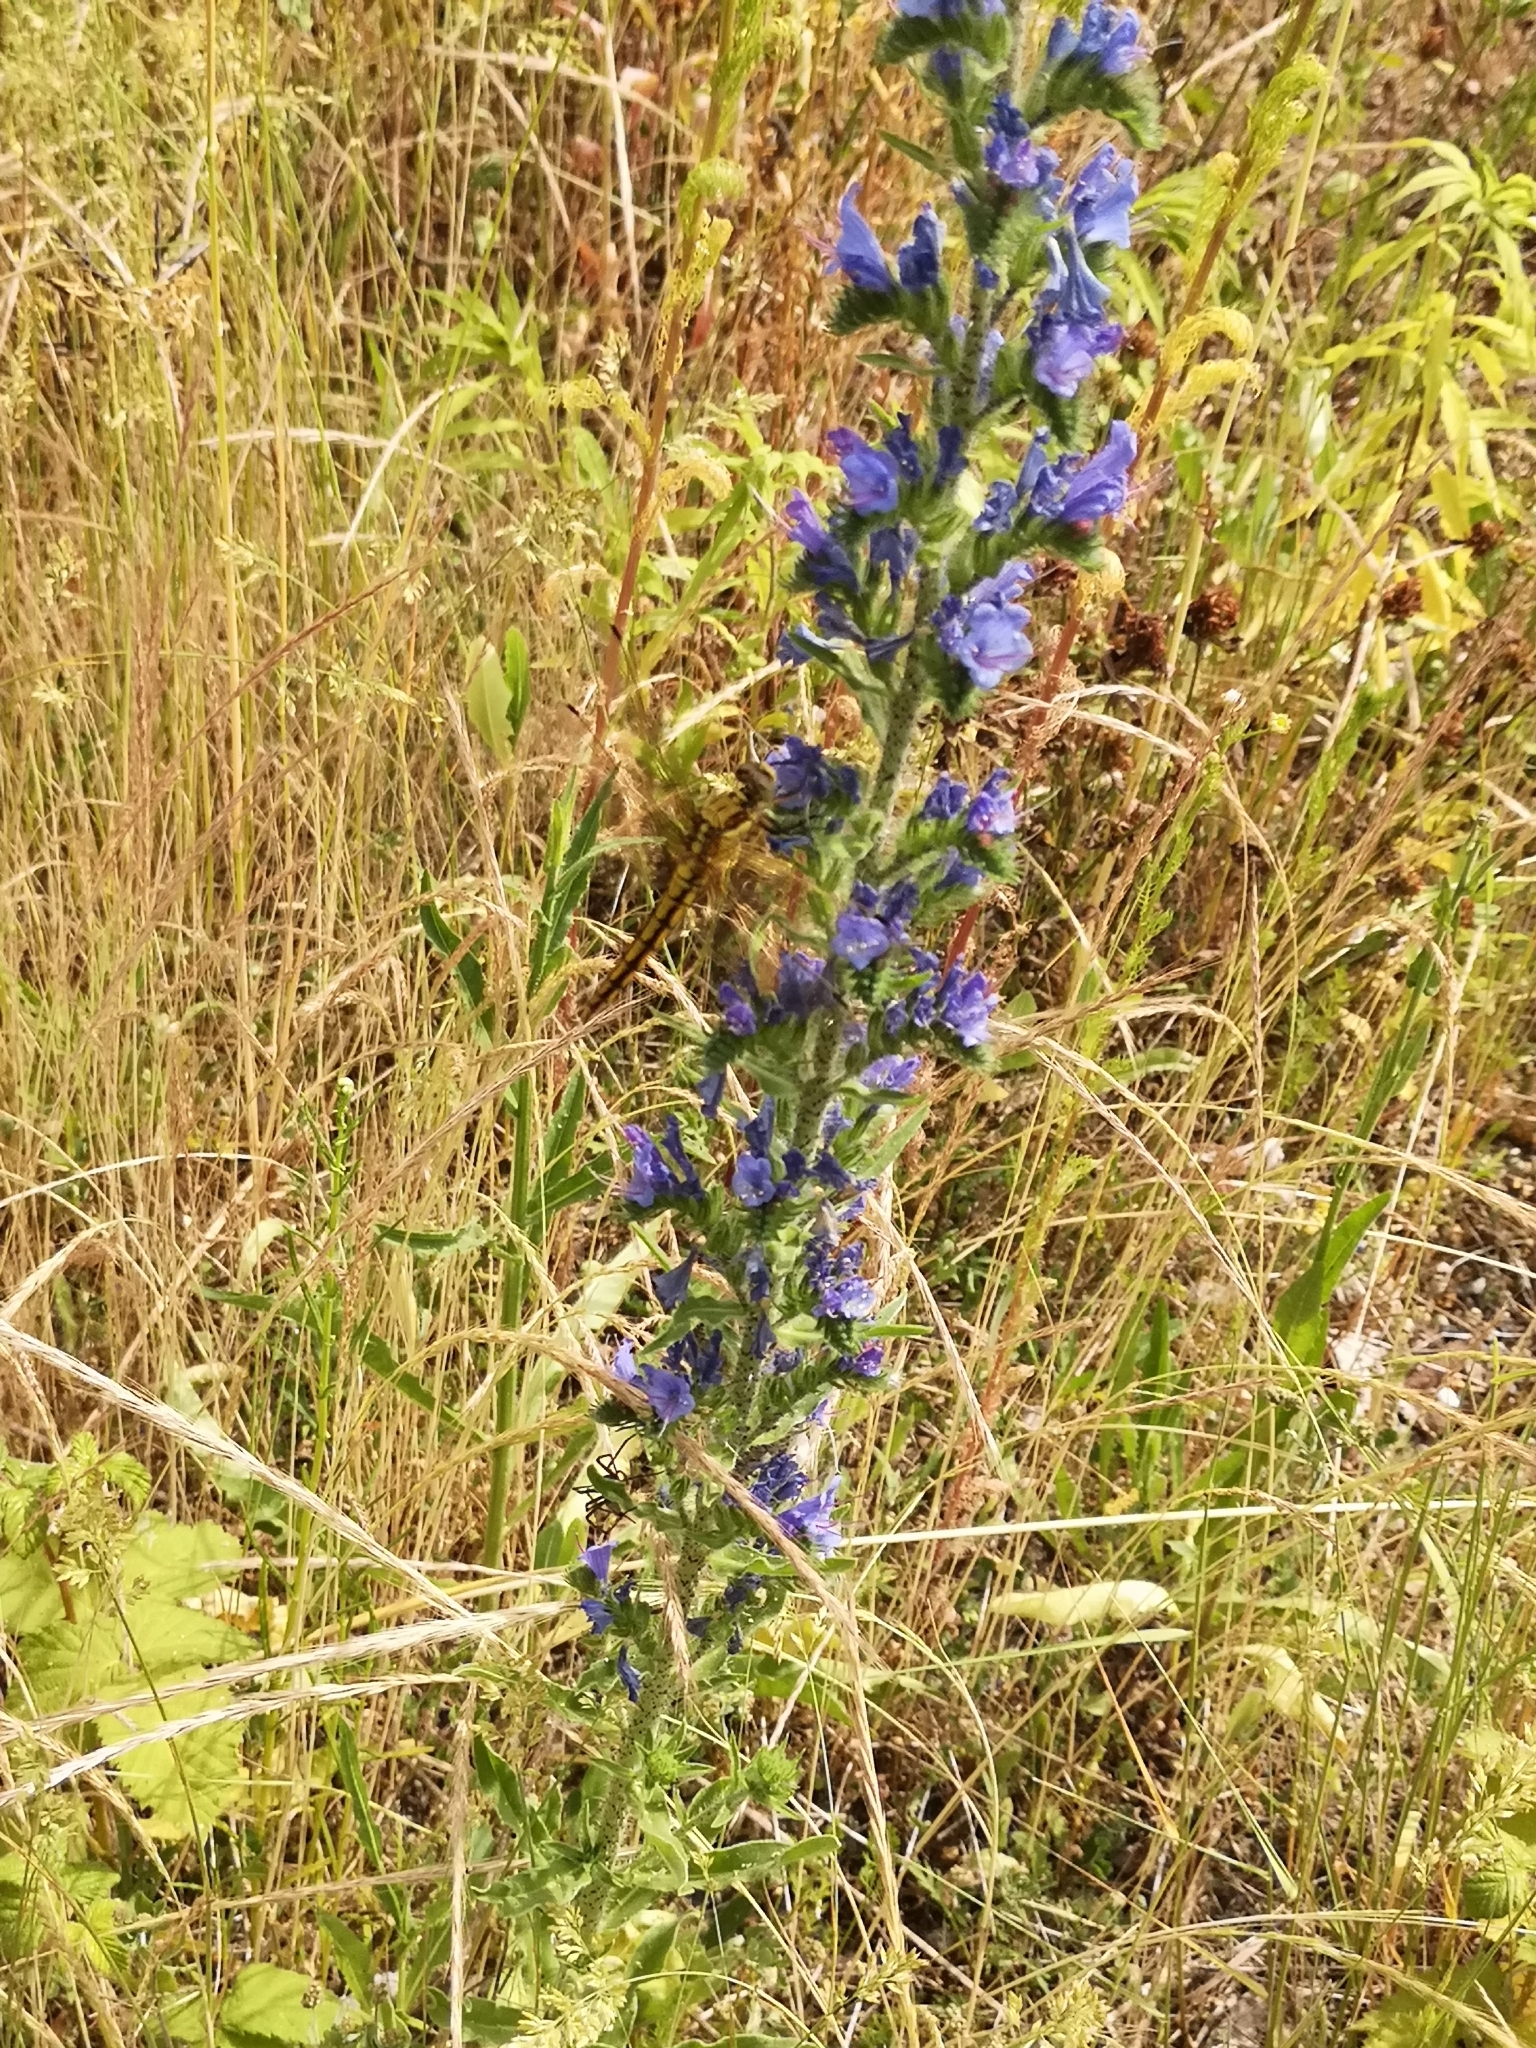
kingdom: Plantae
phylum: Tracheophyta
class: Magnoliopsida
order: Boraginales
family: Boraginaceae
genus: Echium
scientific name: Echium vulgare
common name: Common viper's bugloss
